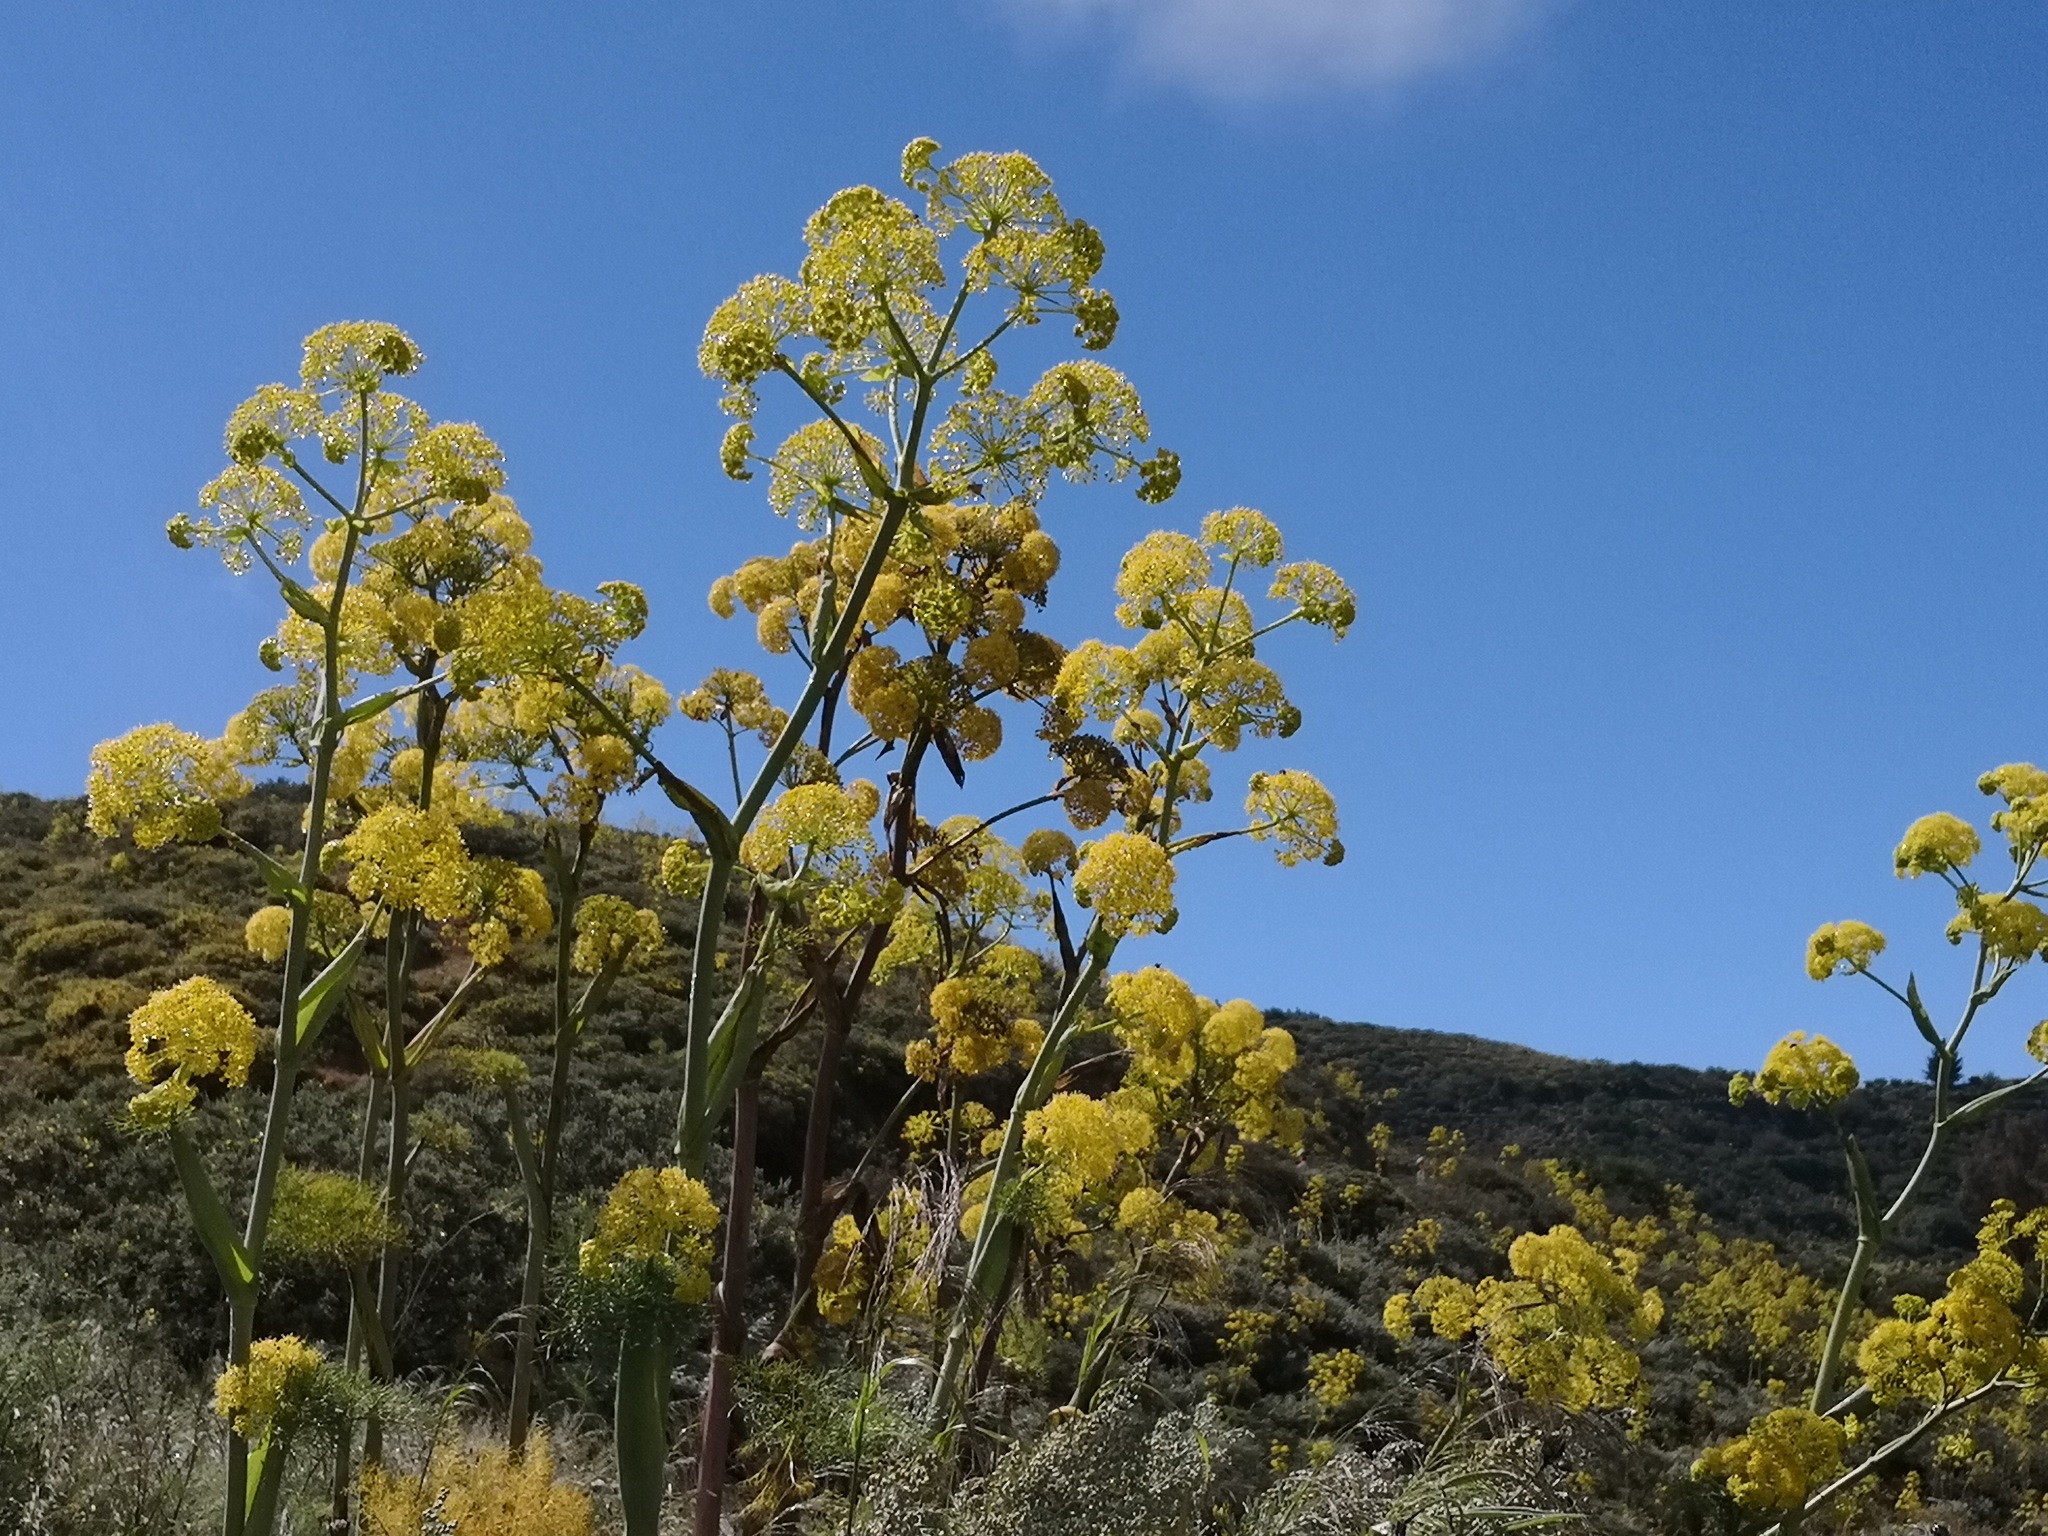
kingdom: Plantae
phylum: Tracheophyta
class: Magnoliopsida
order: Apiales
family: Apiaceae
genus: Ferula
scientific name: Ferula communis
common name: Giant fennel
